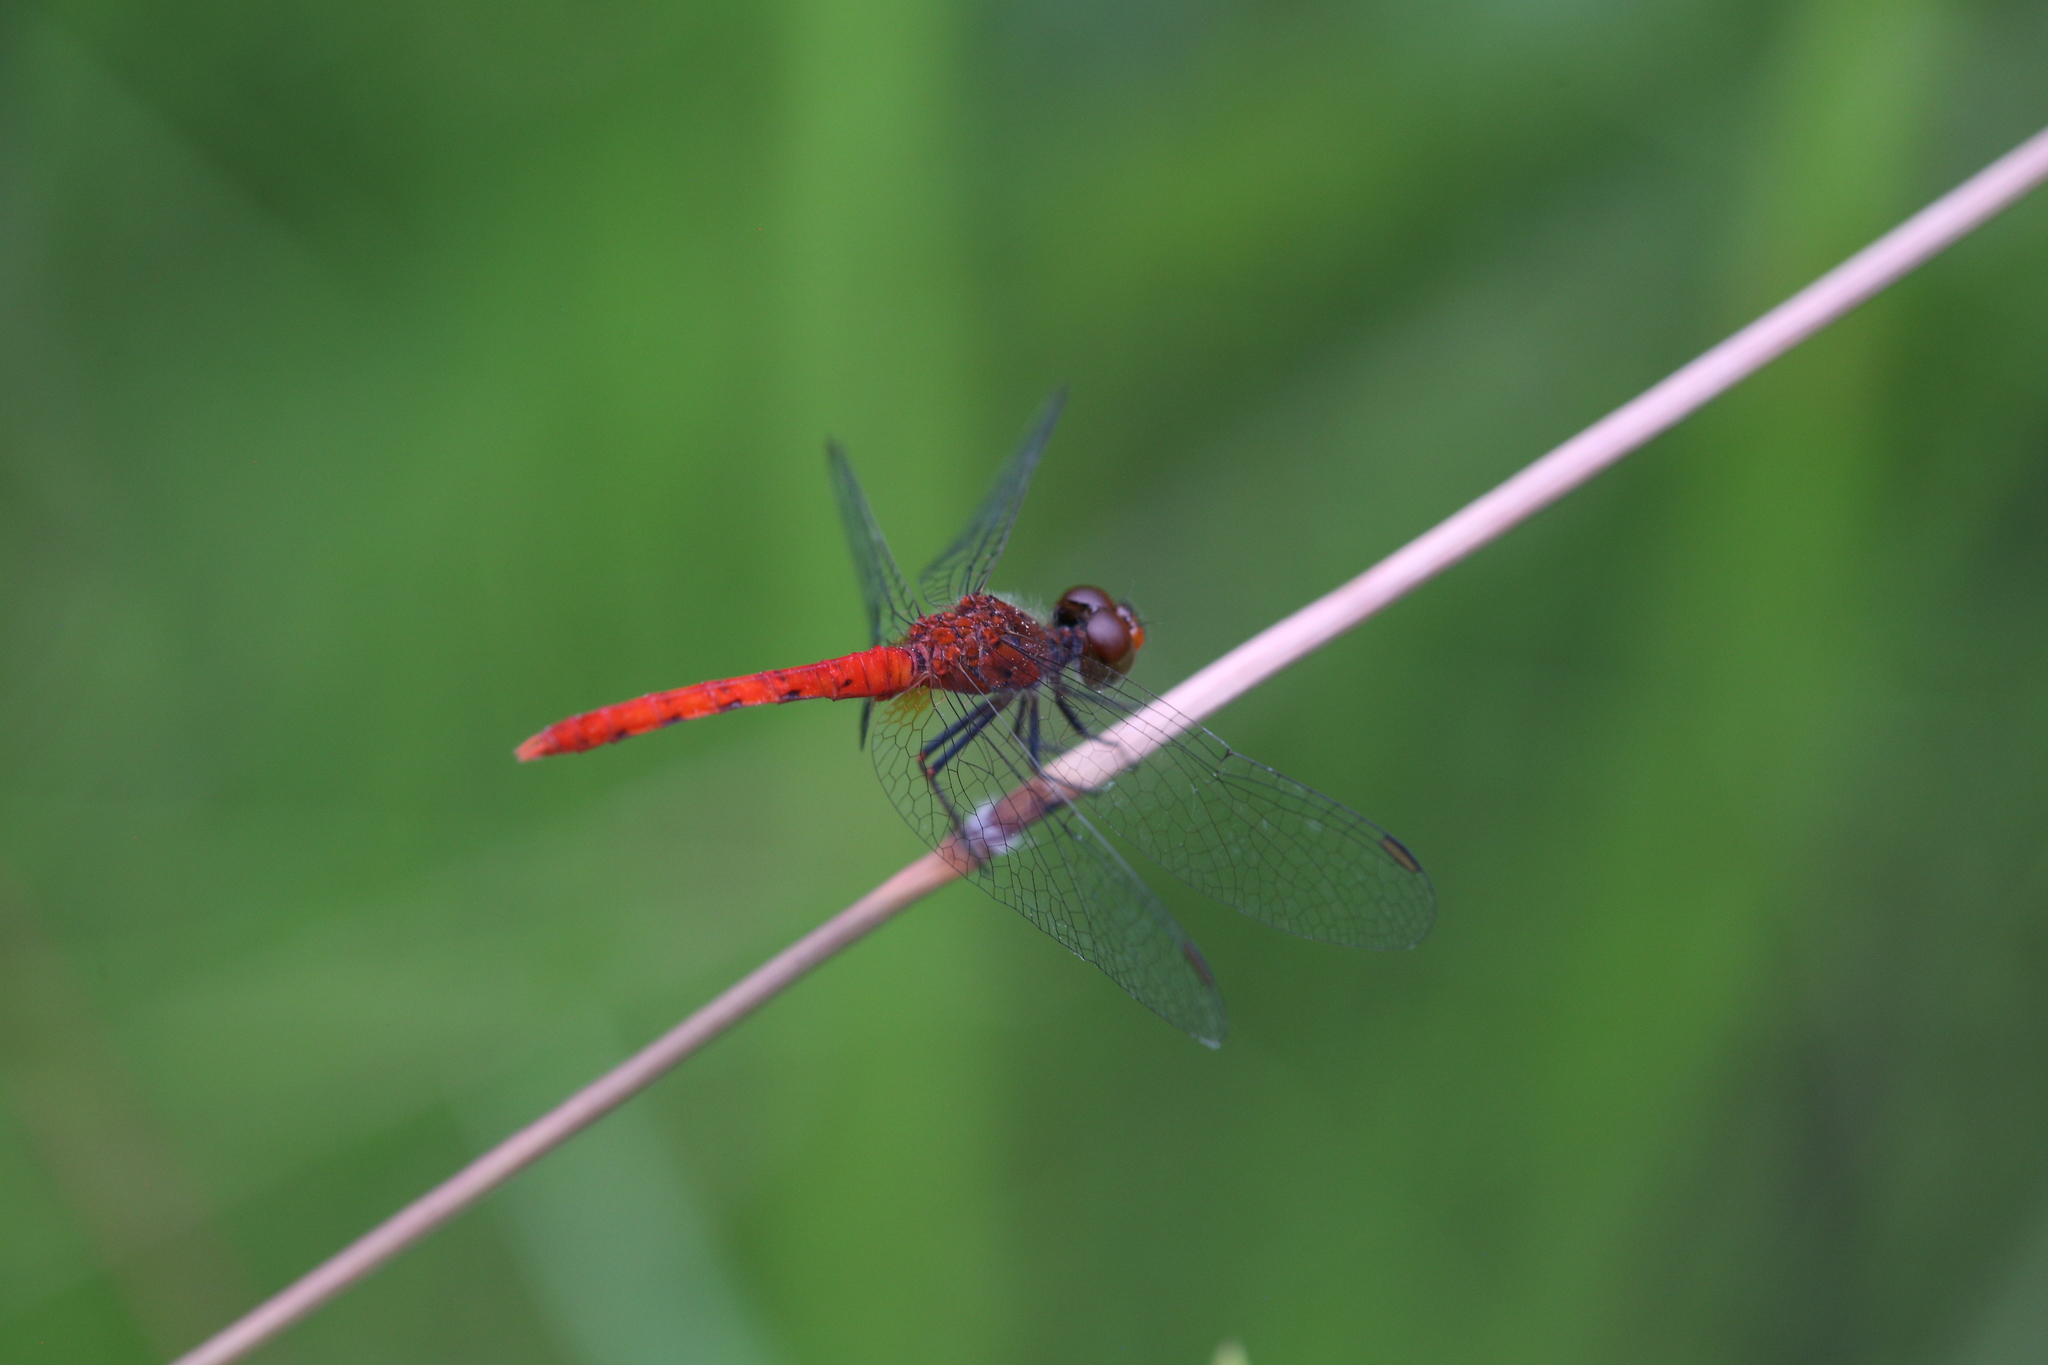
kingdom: Animalia
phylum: Arthropoda
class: Insecta
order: Odonata
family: Libellulidae
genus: Nannodiplax
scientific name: Nannodiplax rubra
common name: Pygmy percher
